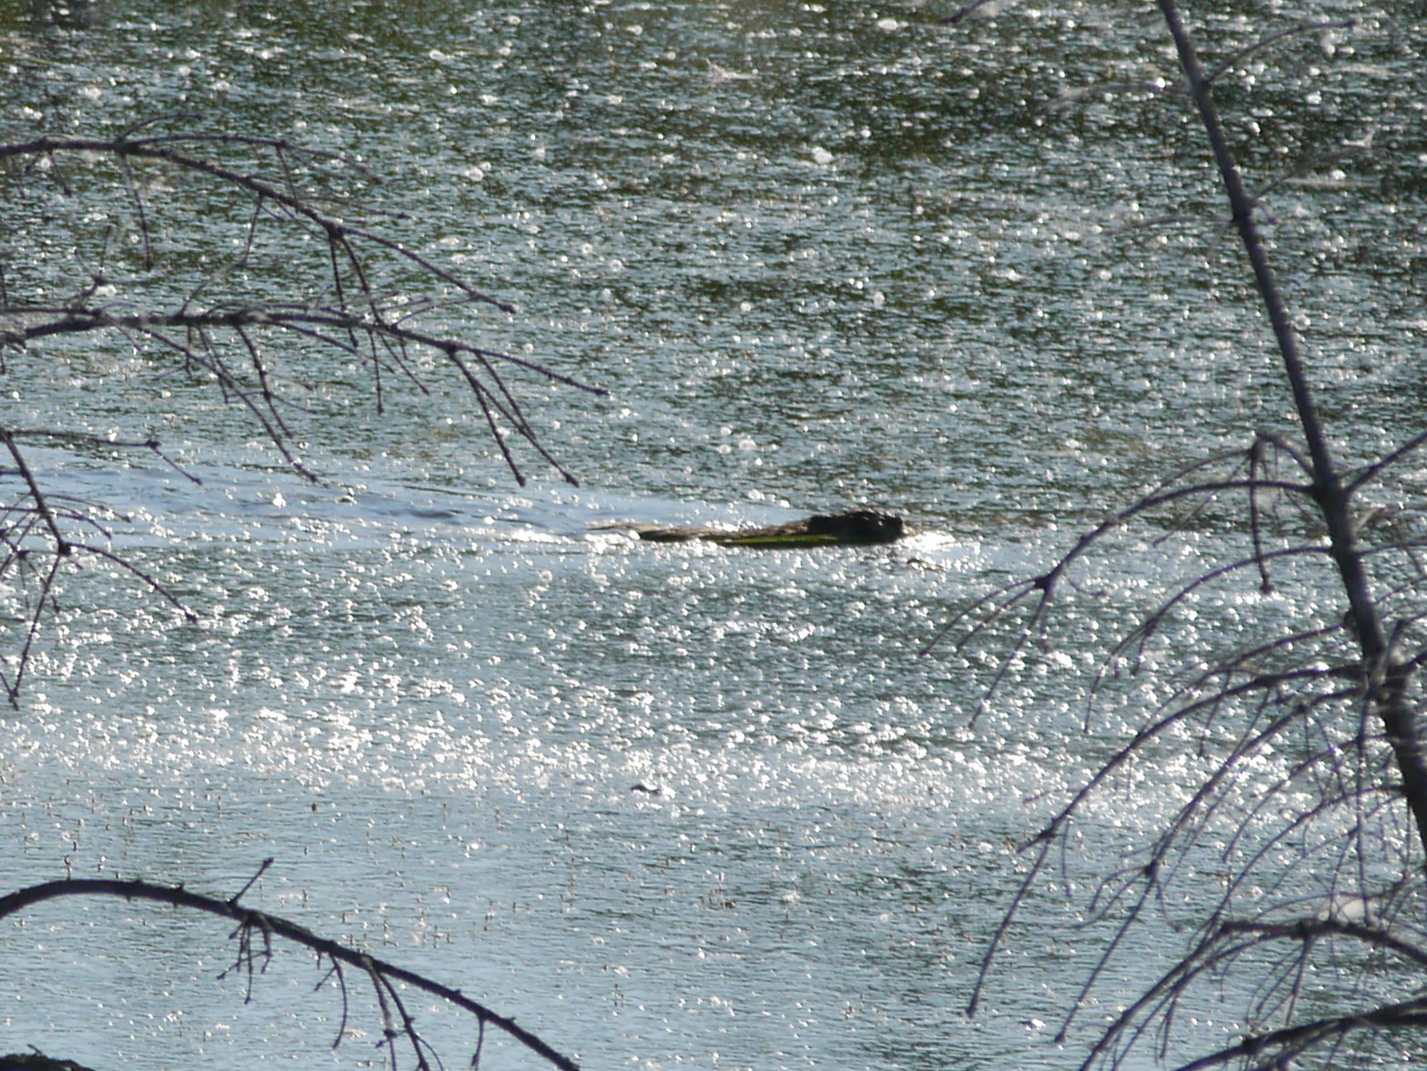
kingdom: Animalia
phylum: Chordata
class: Mammalia
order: Rodentia
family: Cricetidae
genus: Ondatra
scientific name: Ondatra zibethicus
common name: Muskrat
